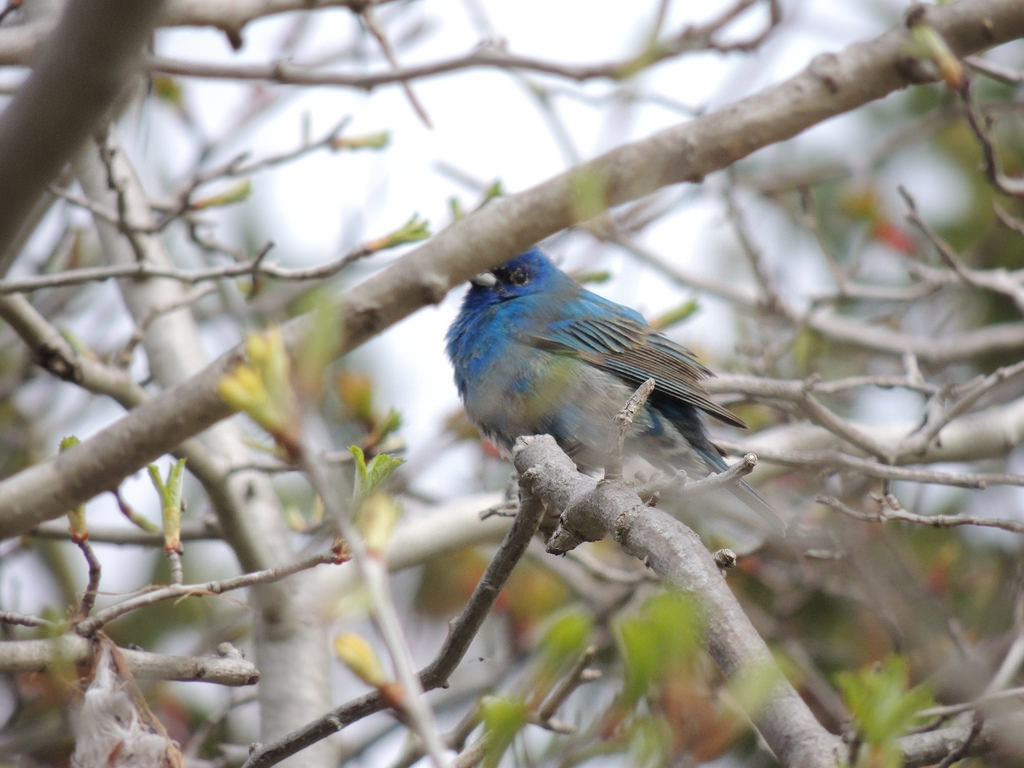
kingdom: Animalia
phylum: Chordata
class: Aves
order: Passeriformes
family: Cardinalidae
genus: Passerina
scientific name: Passerina cyanea
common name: Indigo bunting
